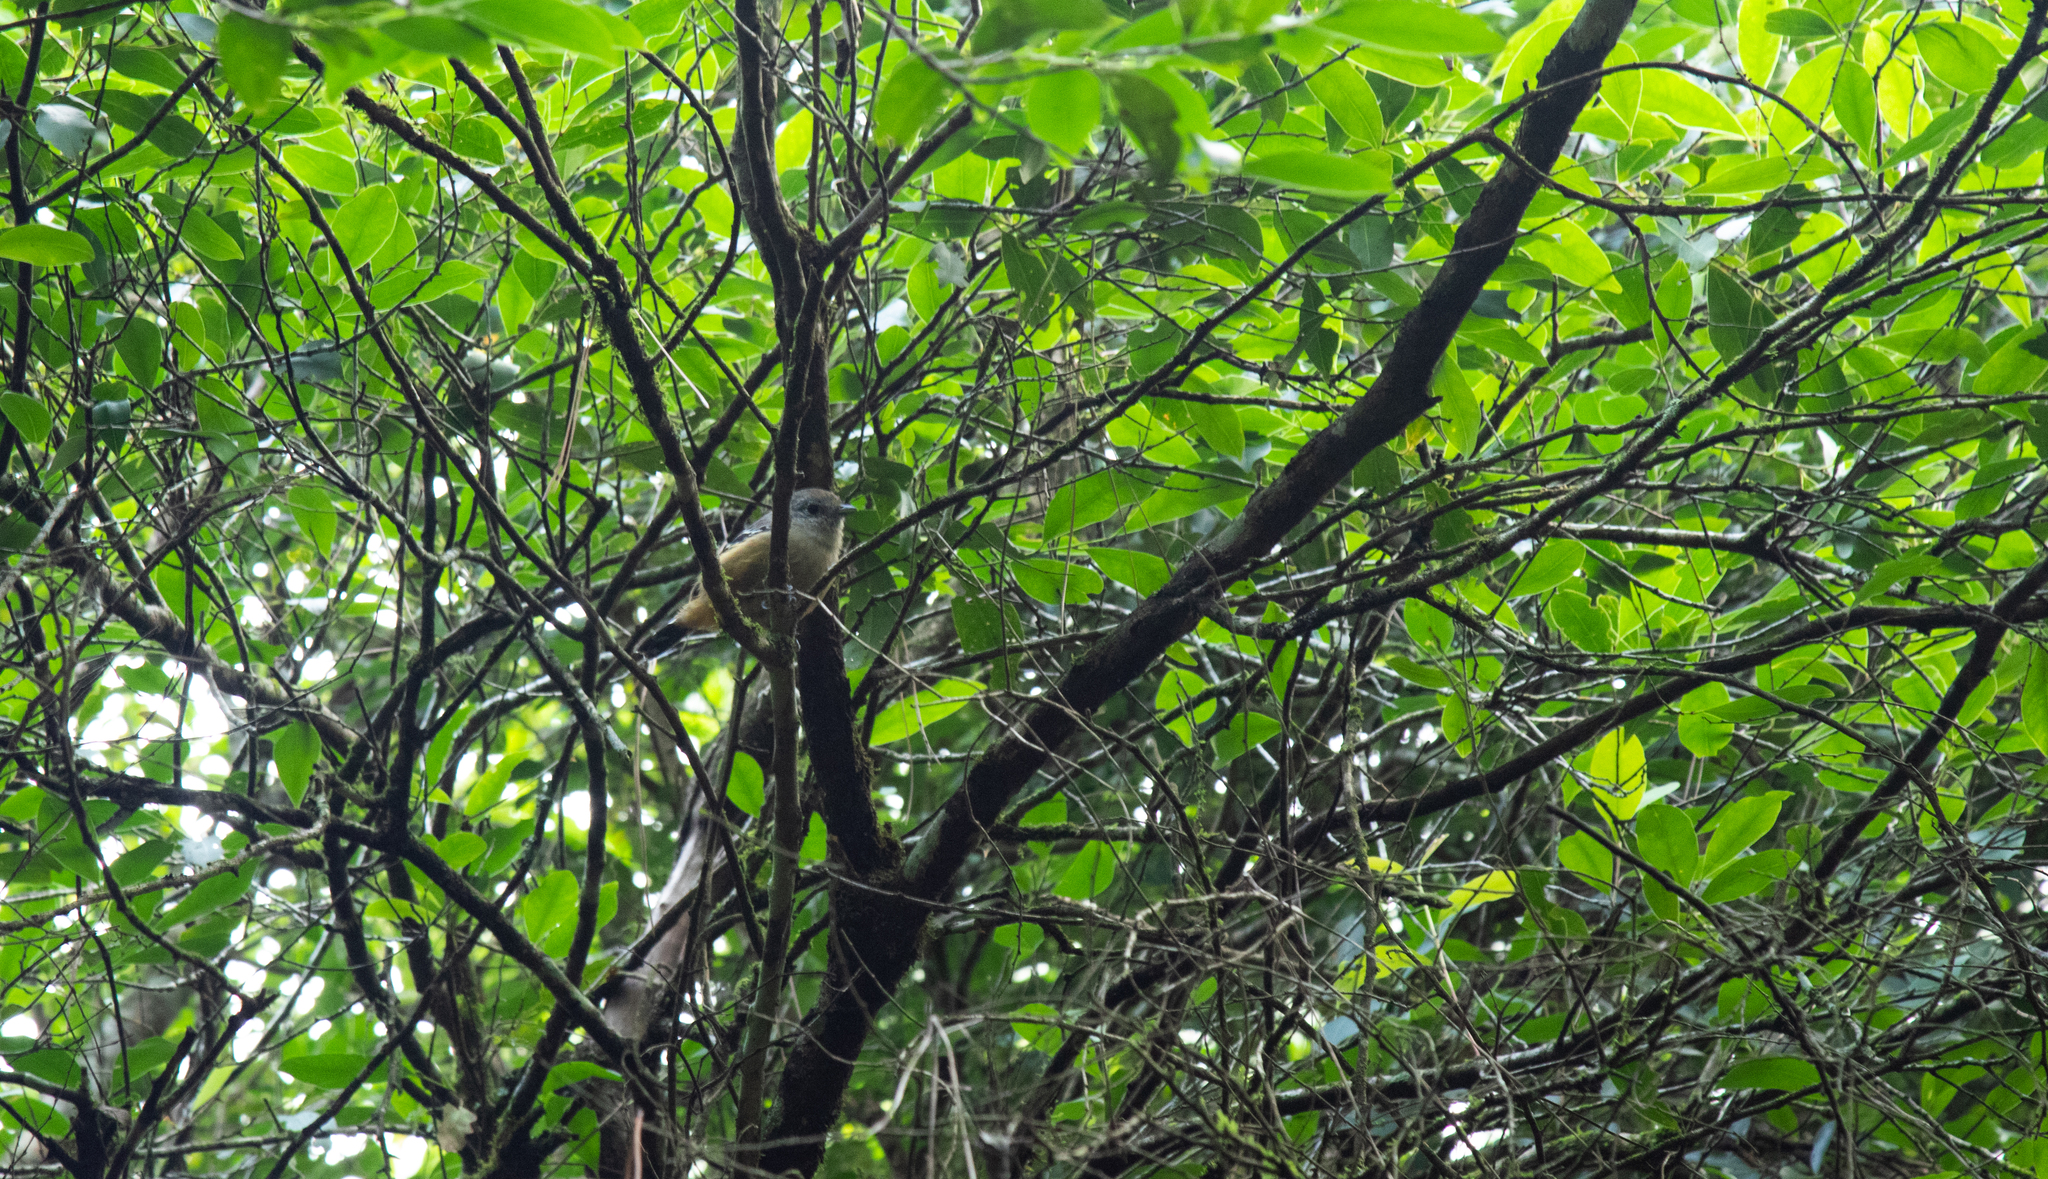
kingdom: Animalia
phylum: Chordata
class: Aves
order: Passeriformes
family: Thamnophilidae
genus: Thamnophilus
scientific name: Thamnophilus caerulescens
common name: Variable antshrike
